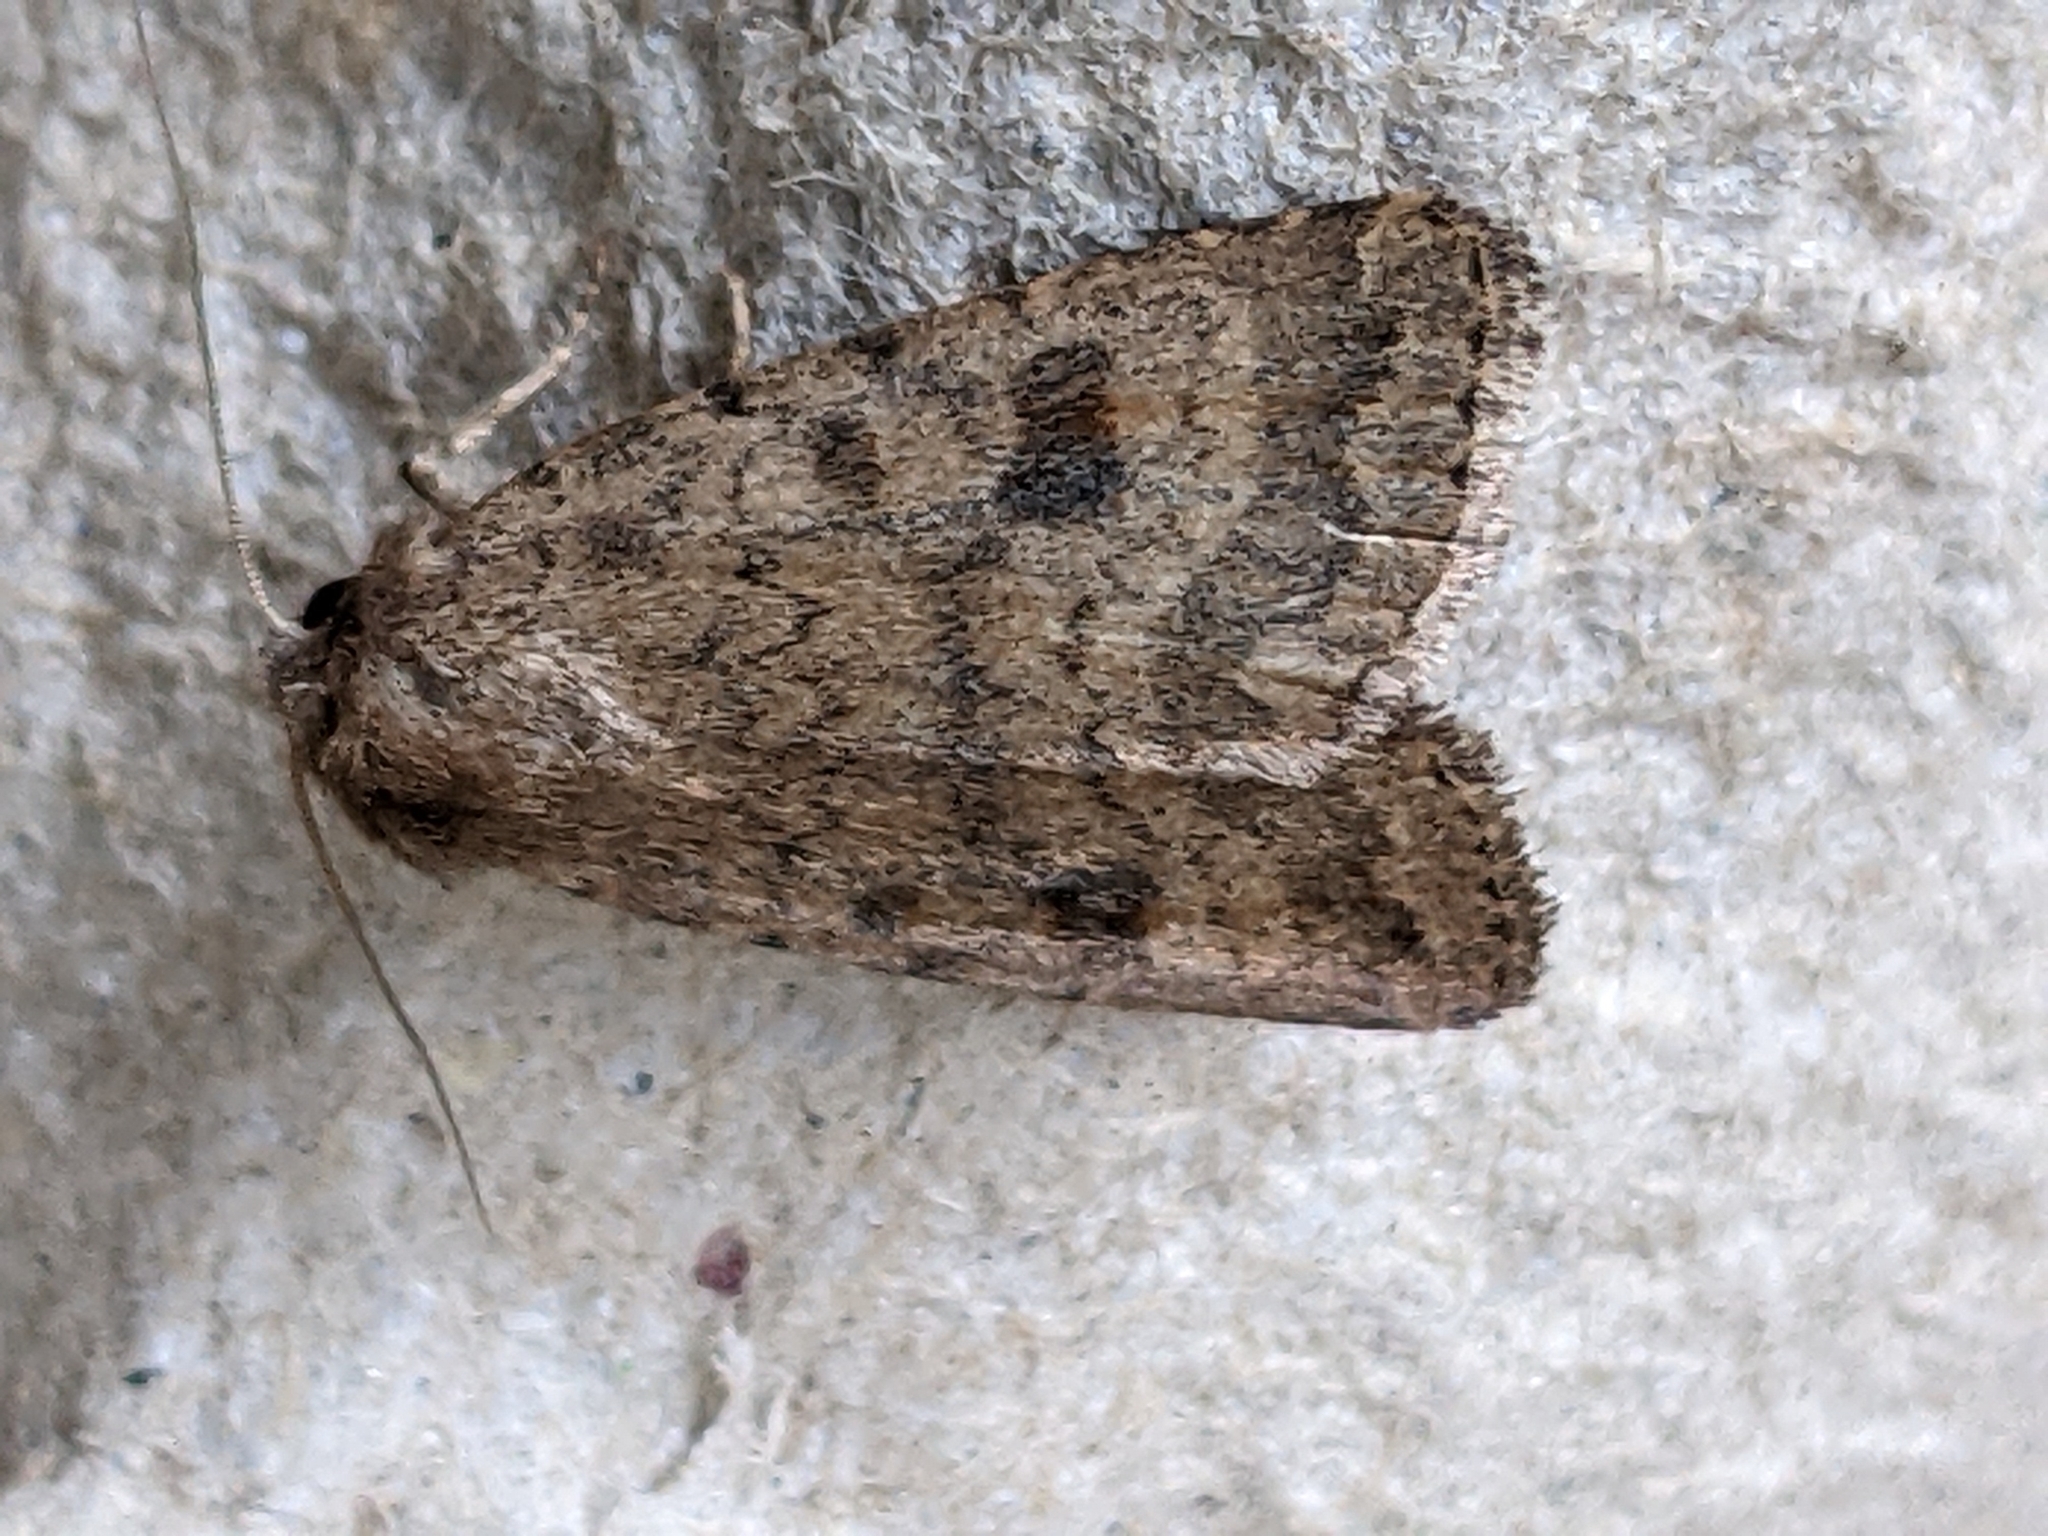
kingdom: Animalia
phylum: Arthropoda
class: Insecta
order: Lepidoptera
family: Noctuidae
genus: Caradrina
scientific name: Caradrina morpheus
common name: Mottled rustic
